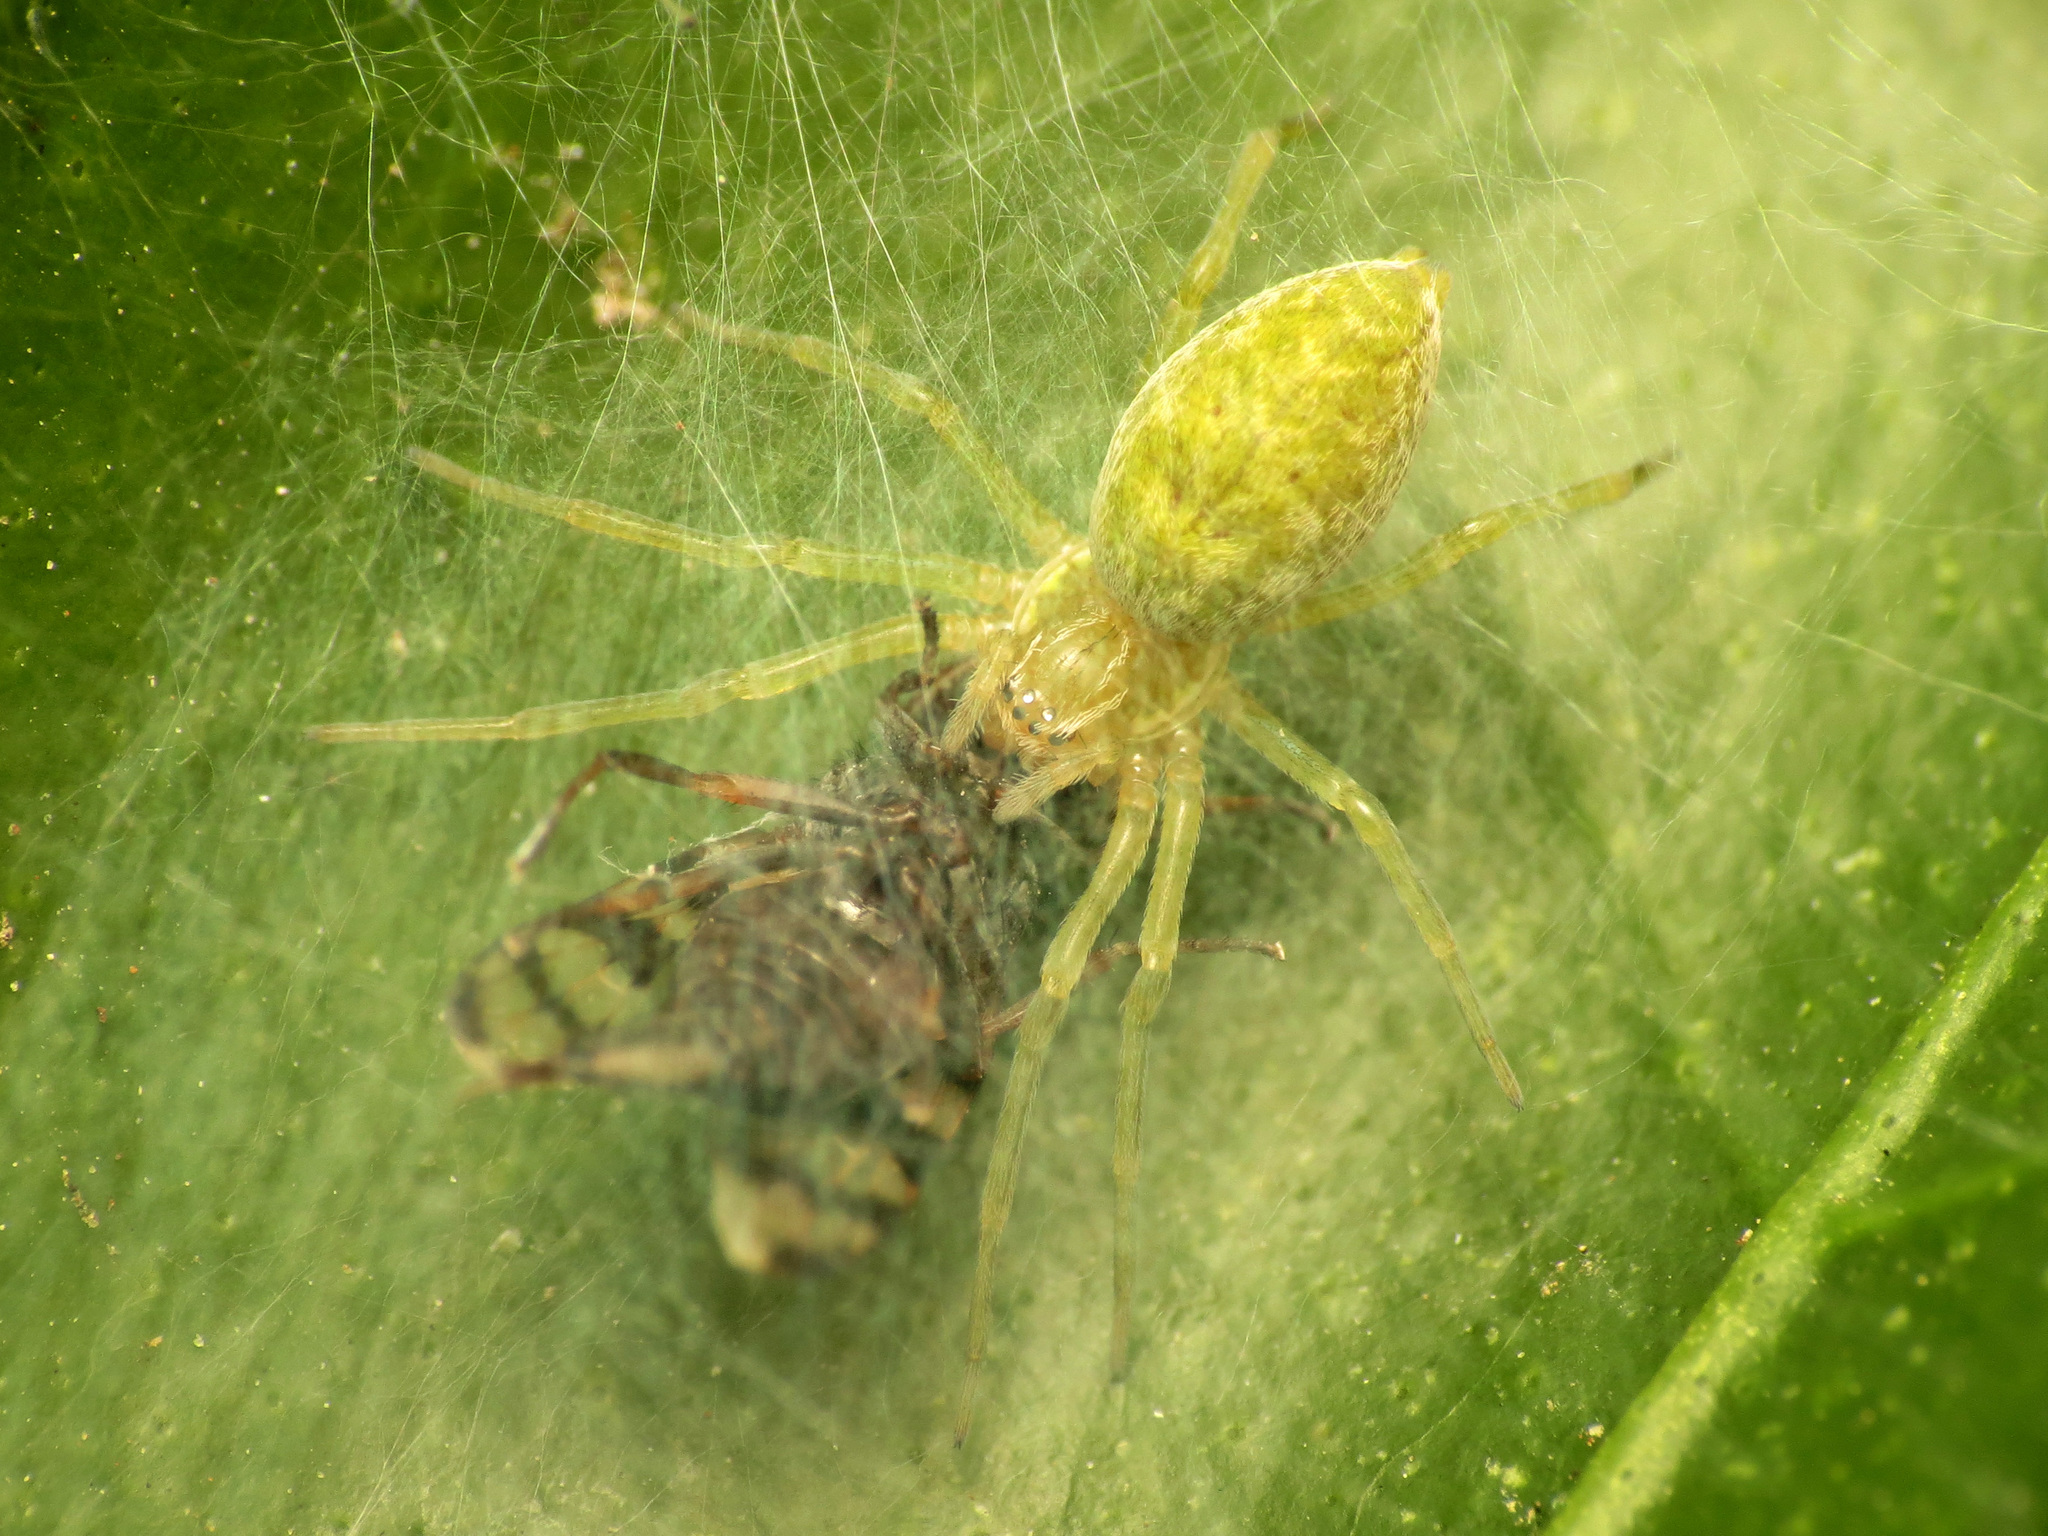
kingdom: Animalia
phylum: Arthropoda
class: Arachnida
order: Araneae
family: Dictynidae
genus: Nigma
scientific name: Nigma walckenaeri
